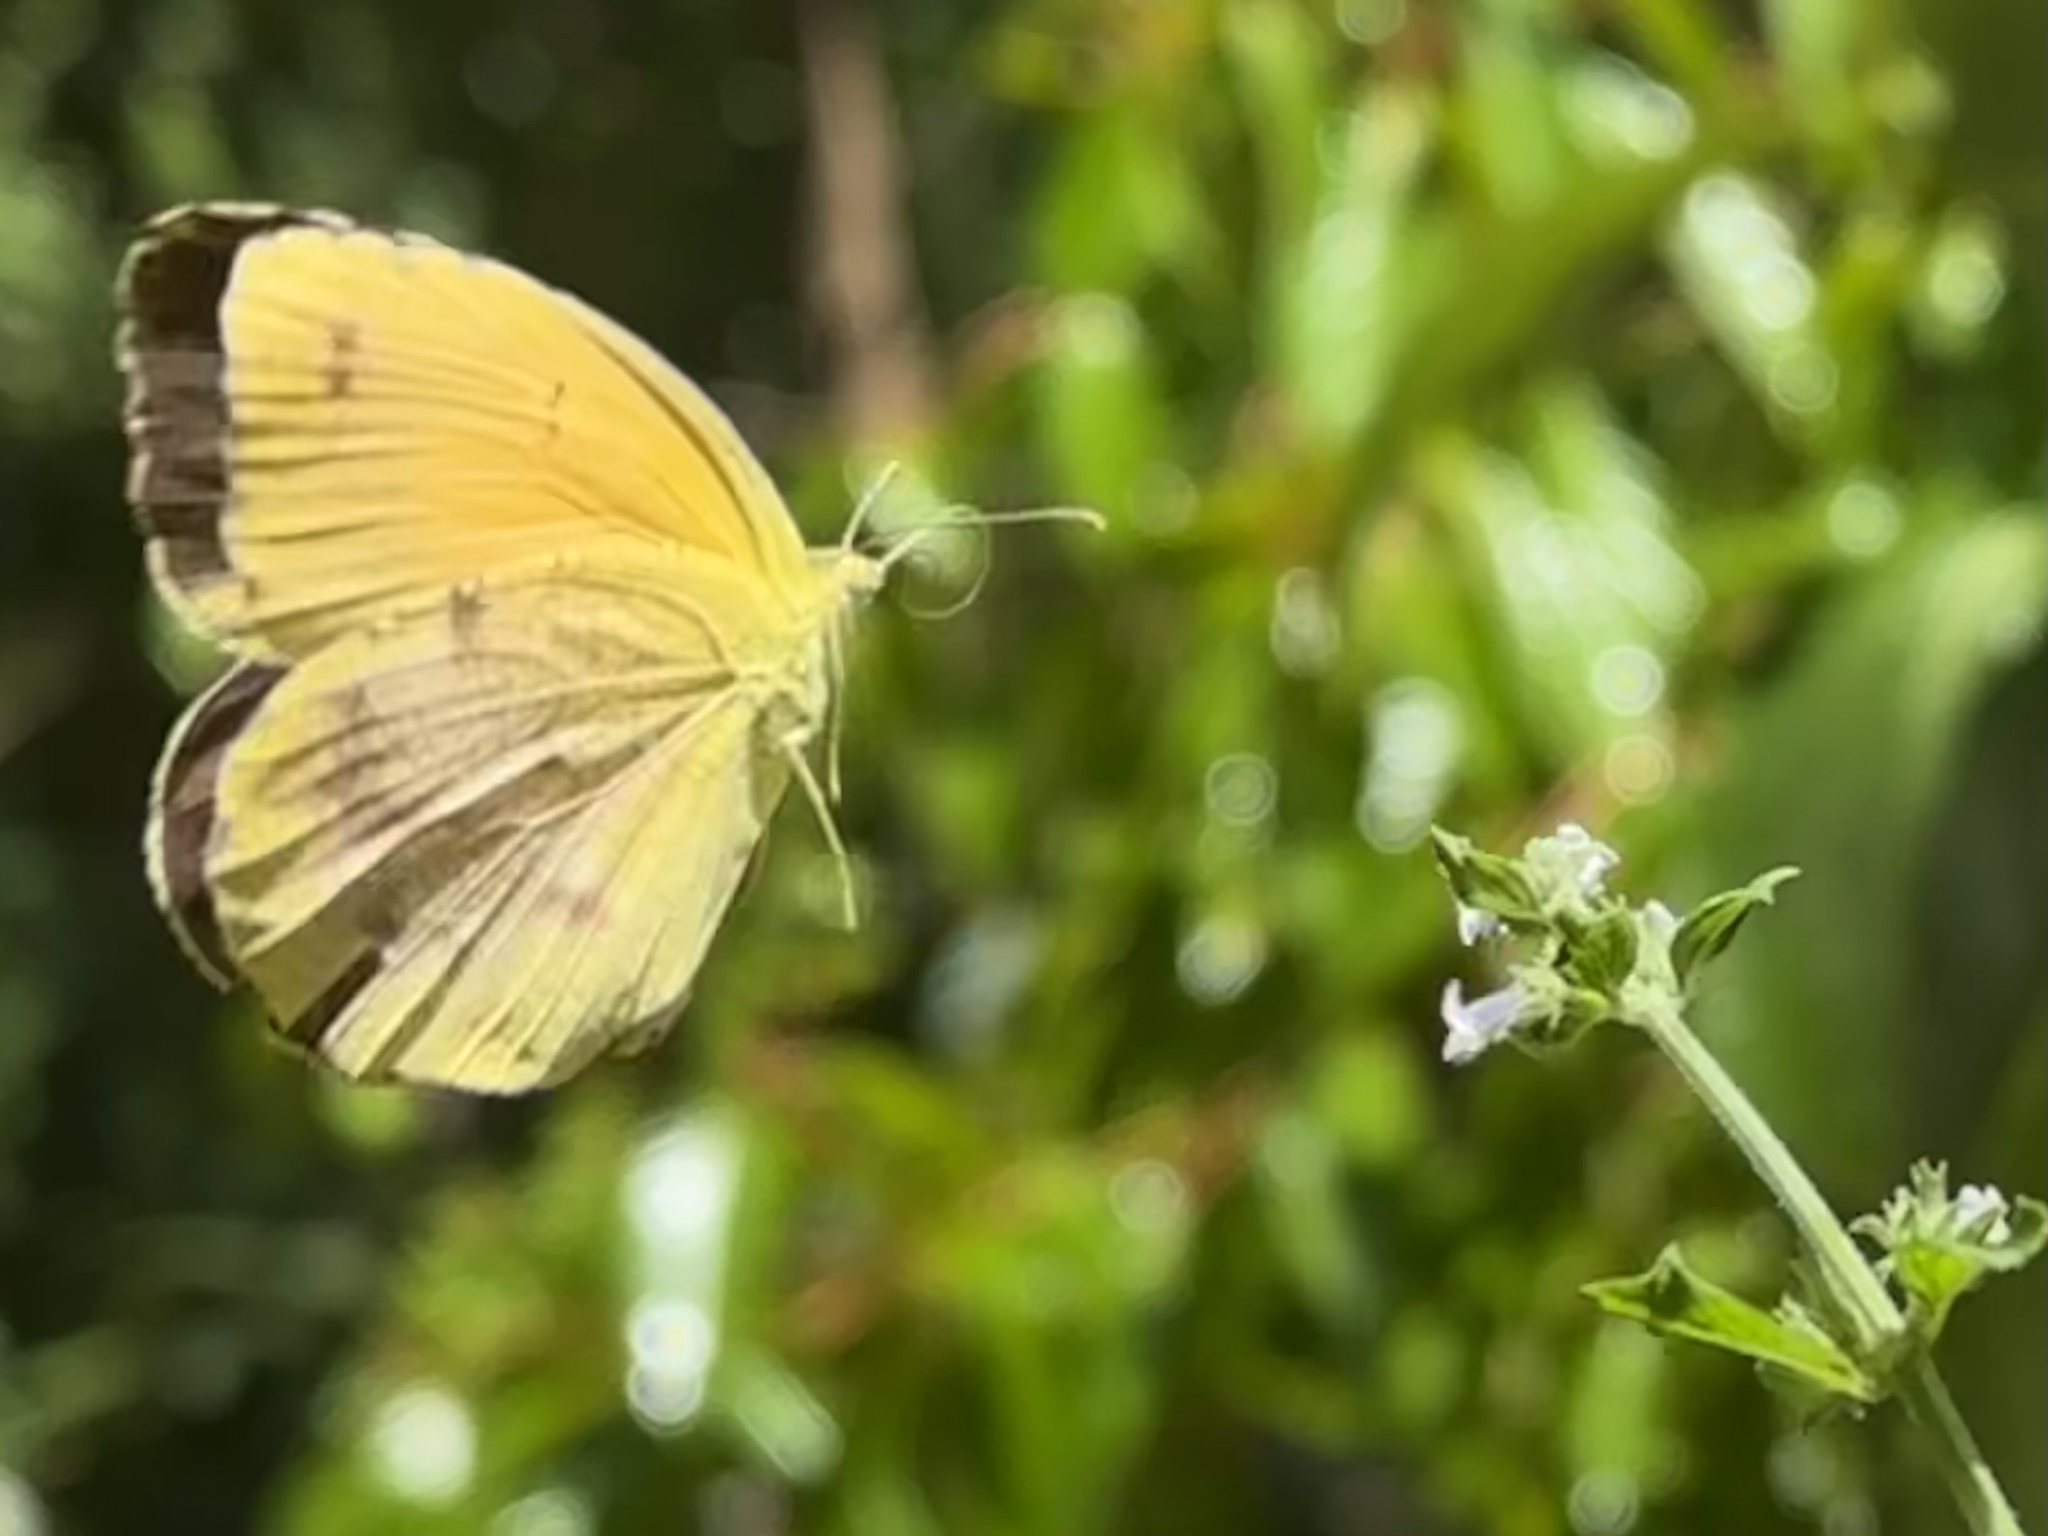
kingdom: Animalia
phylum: Arthropoda
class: Insecta
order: Lepidoptera
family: Pieridae
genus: Abaeis
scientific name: Abaeis nicippe
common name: Sleepy orange
